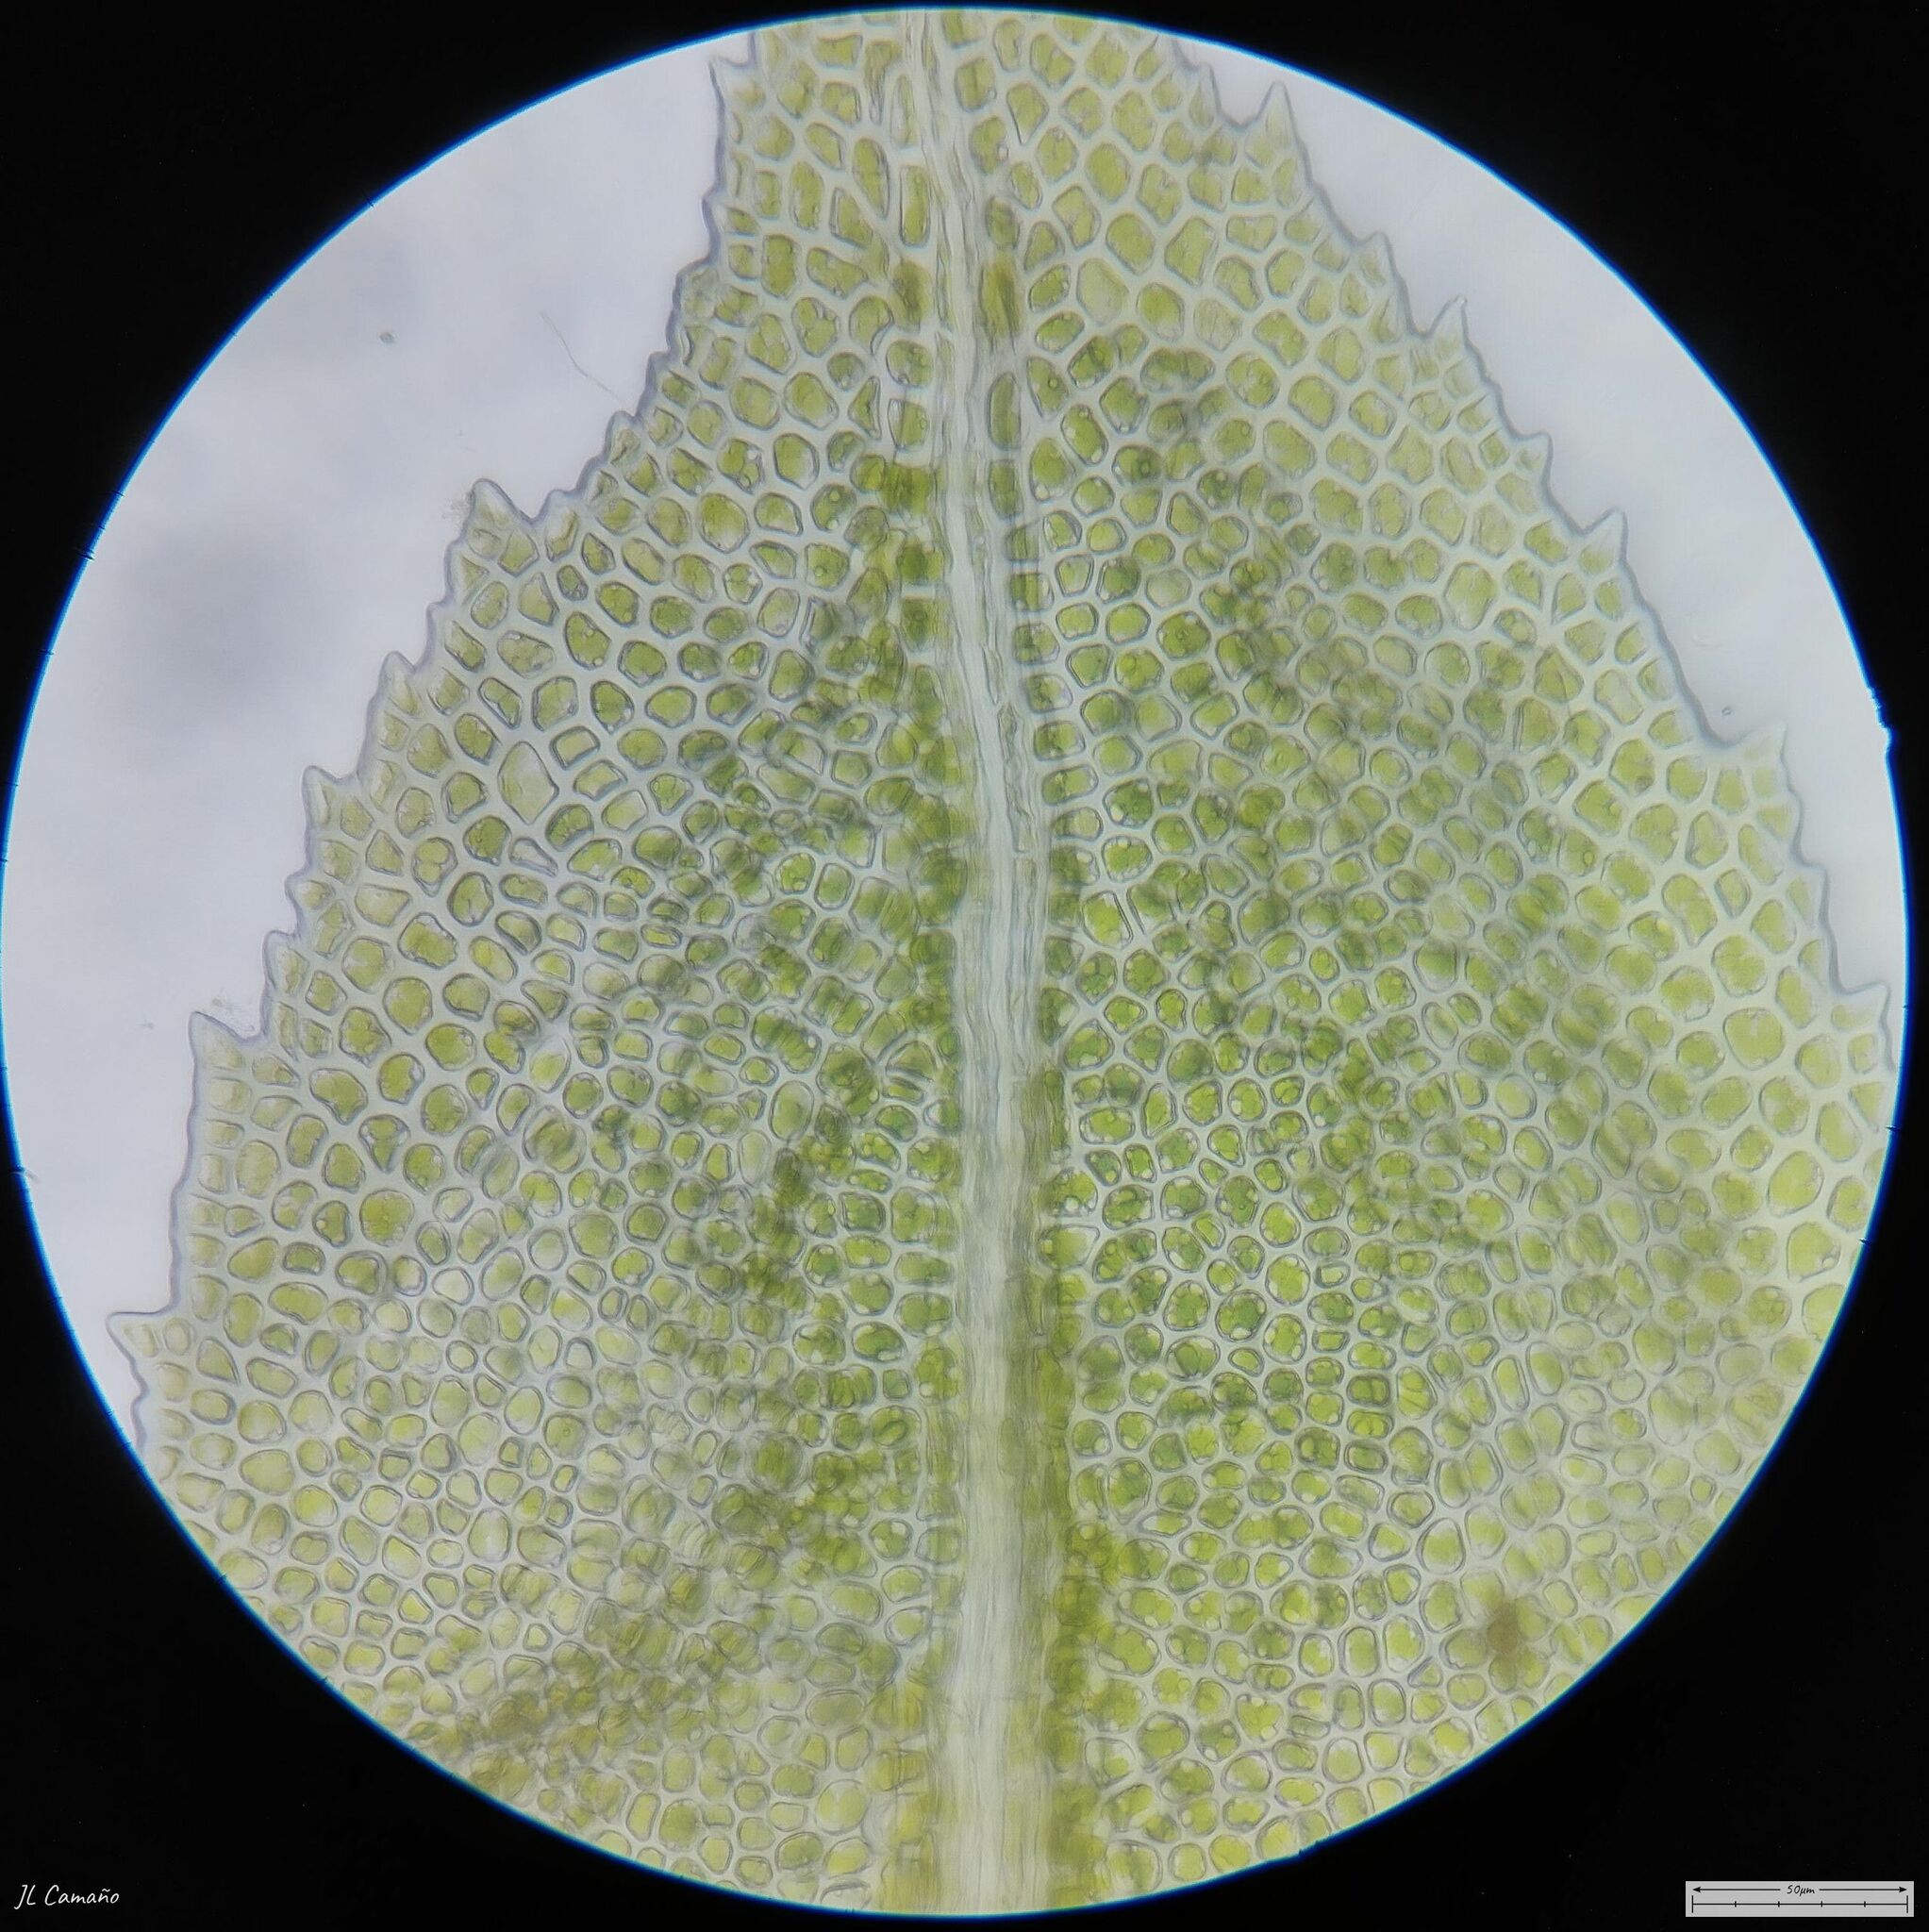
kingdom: Plantae
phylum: Bryophyta
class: Bryopsida
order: Dicranales
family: Fissidentaceae
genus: Fissidens
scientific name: Fissidens dubius
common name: Rock pocket moss
